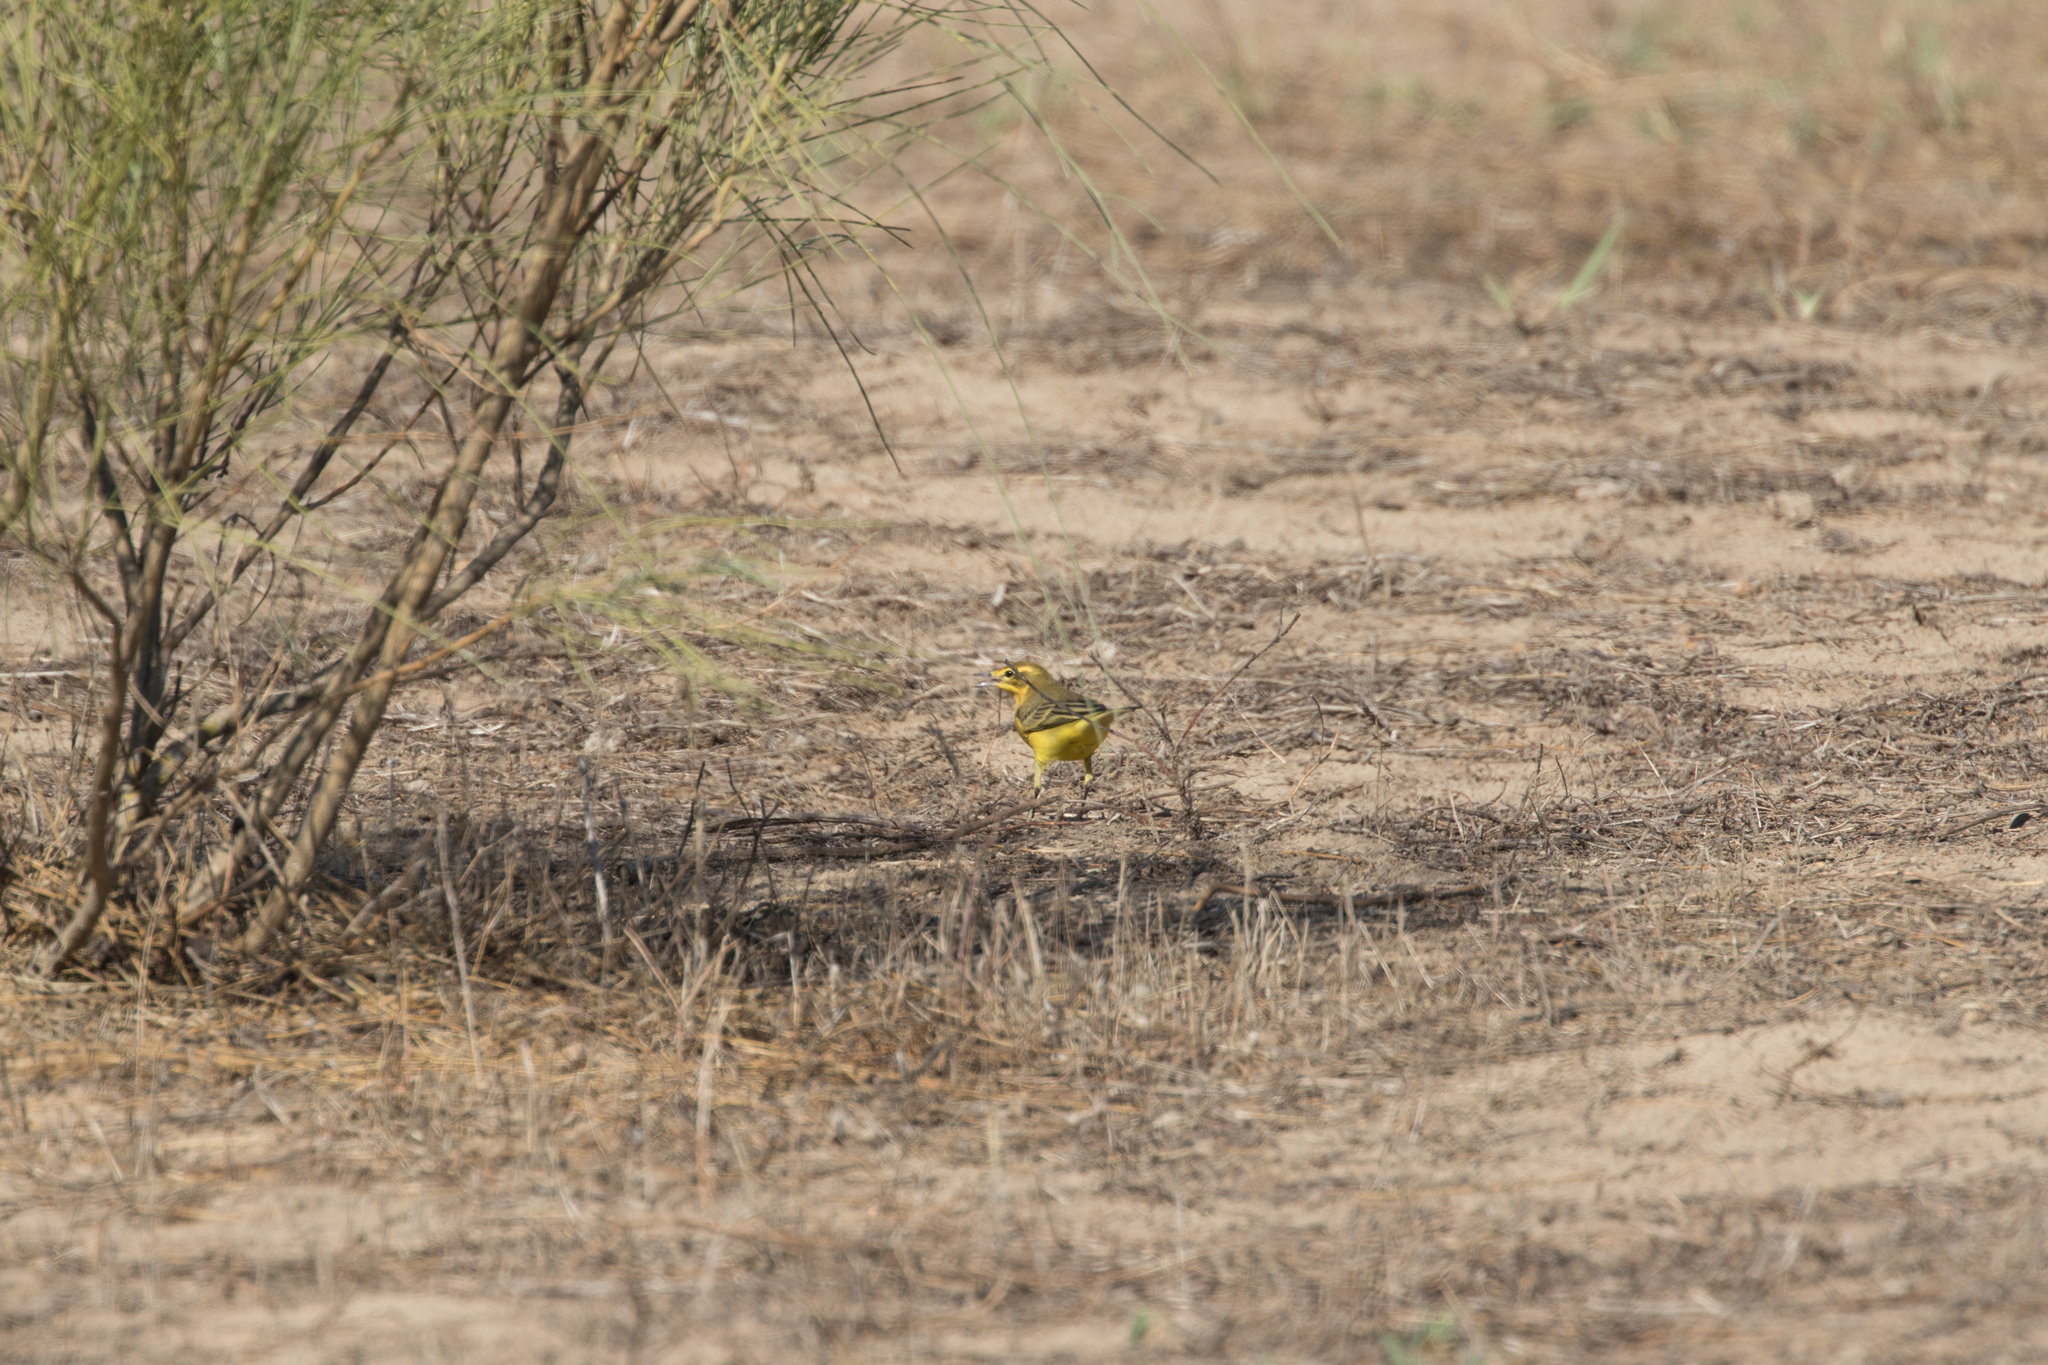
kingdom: Animalia
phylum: Chordata
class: Aves
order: Passeriformes
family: Motacillidae
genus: Motacilla
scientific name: Motacilla flava
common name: Western yellow wagtail
